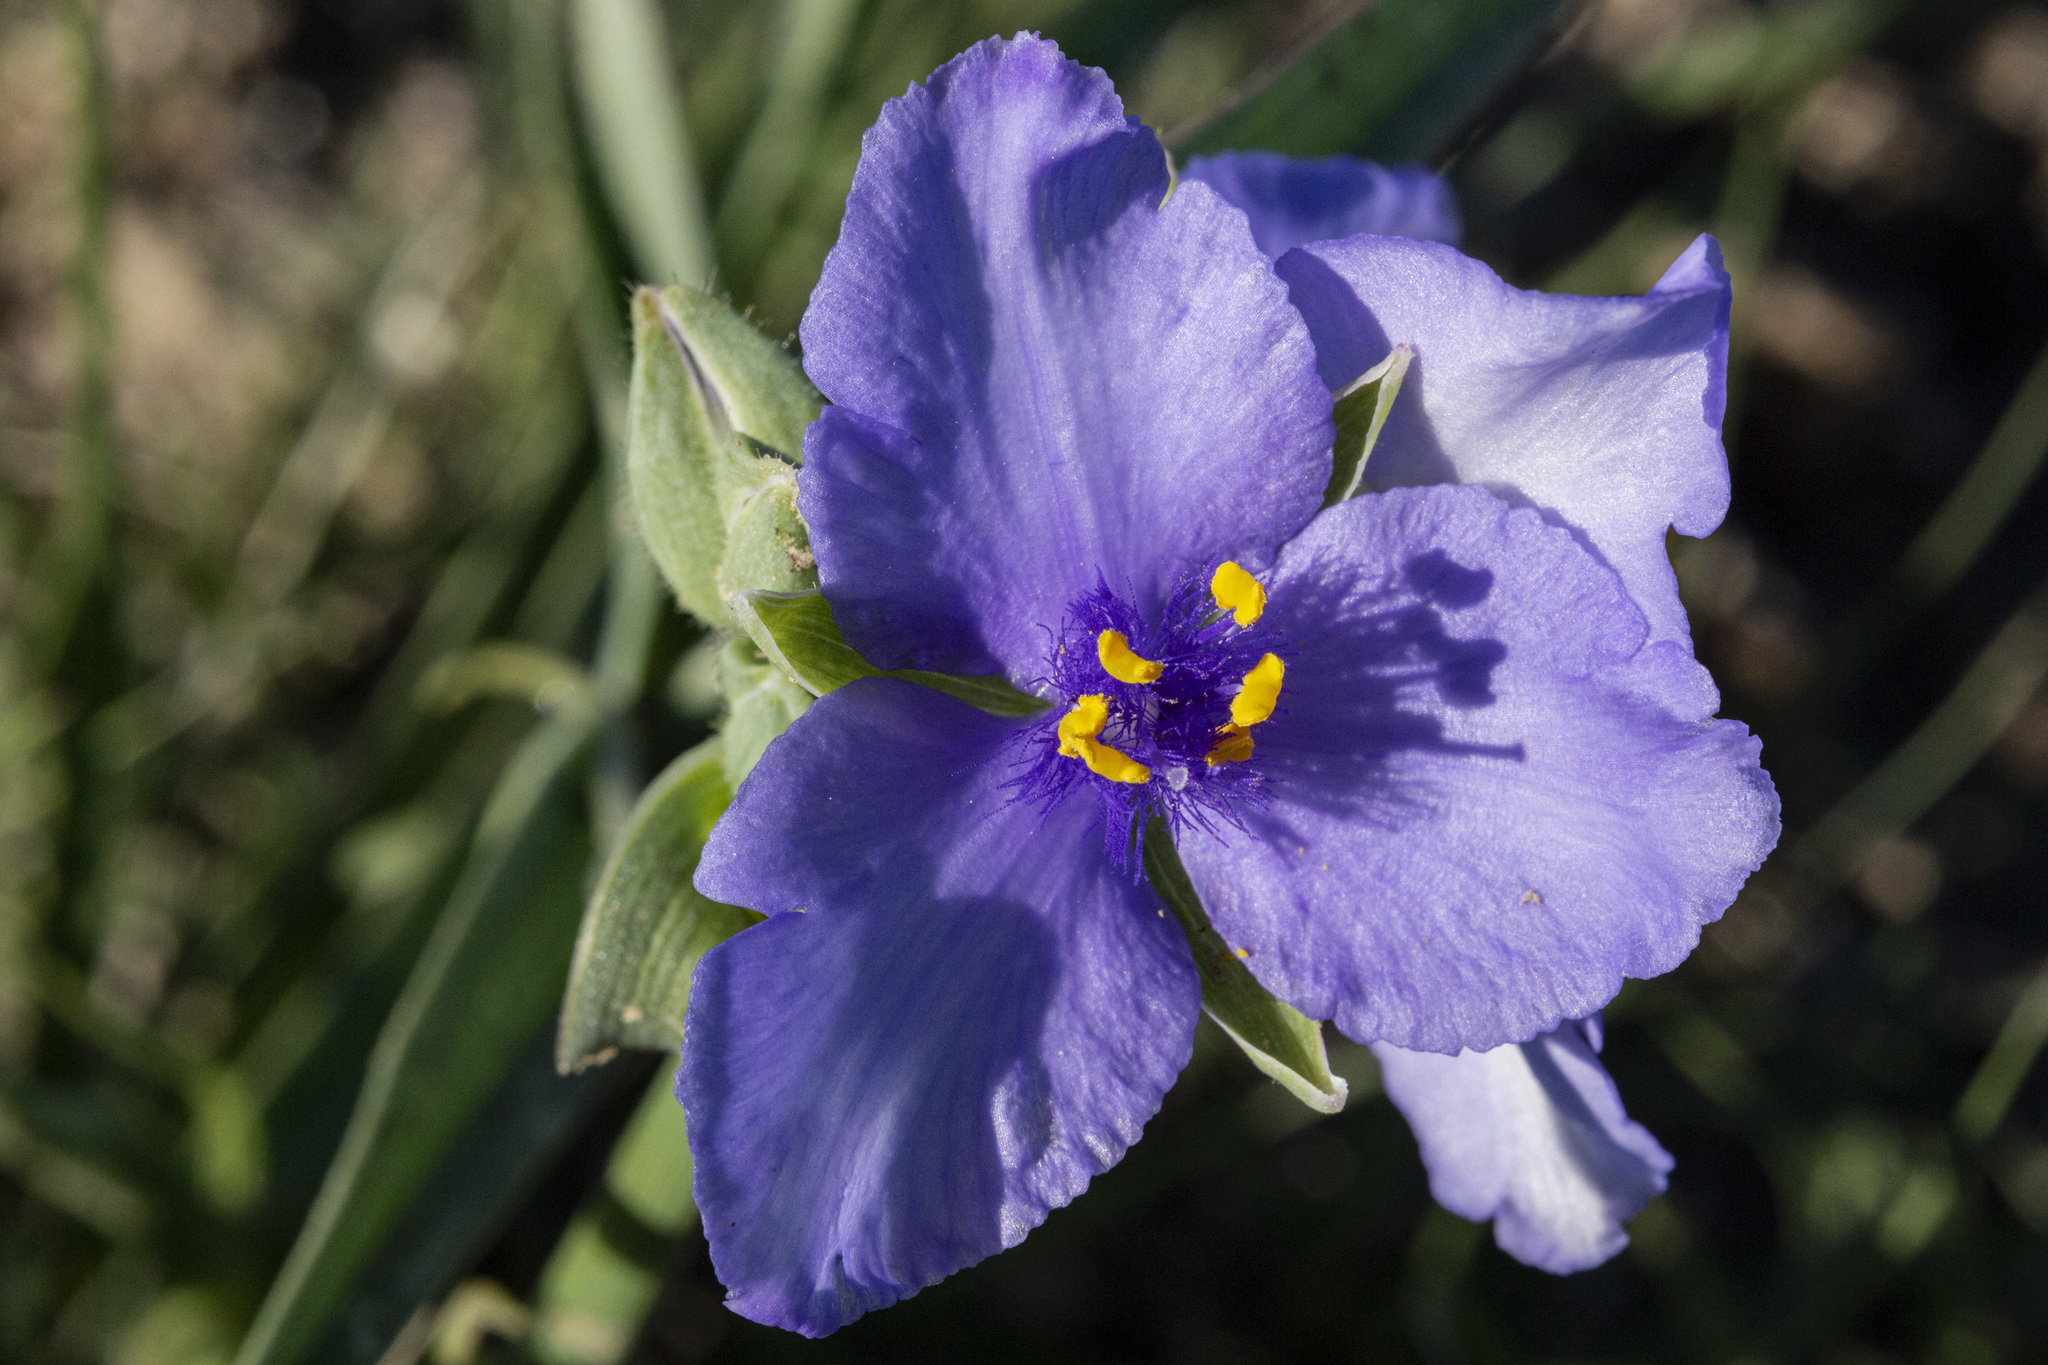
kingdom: Plantae
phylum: Tracheophyta
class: Liliopsida
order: Commelinales
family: Commelinaceae
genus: Tradescantia
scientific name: Tradescantia occidentalis
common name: Prairie spiderwort
